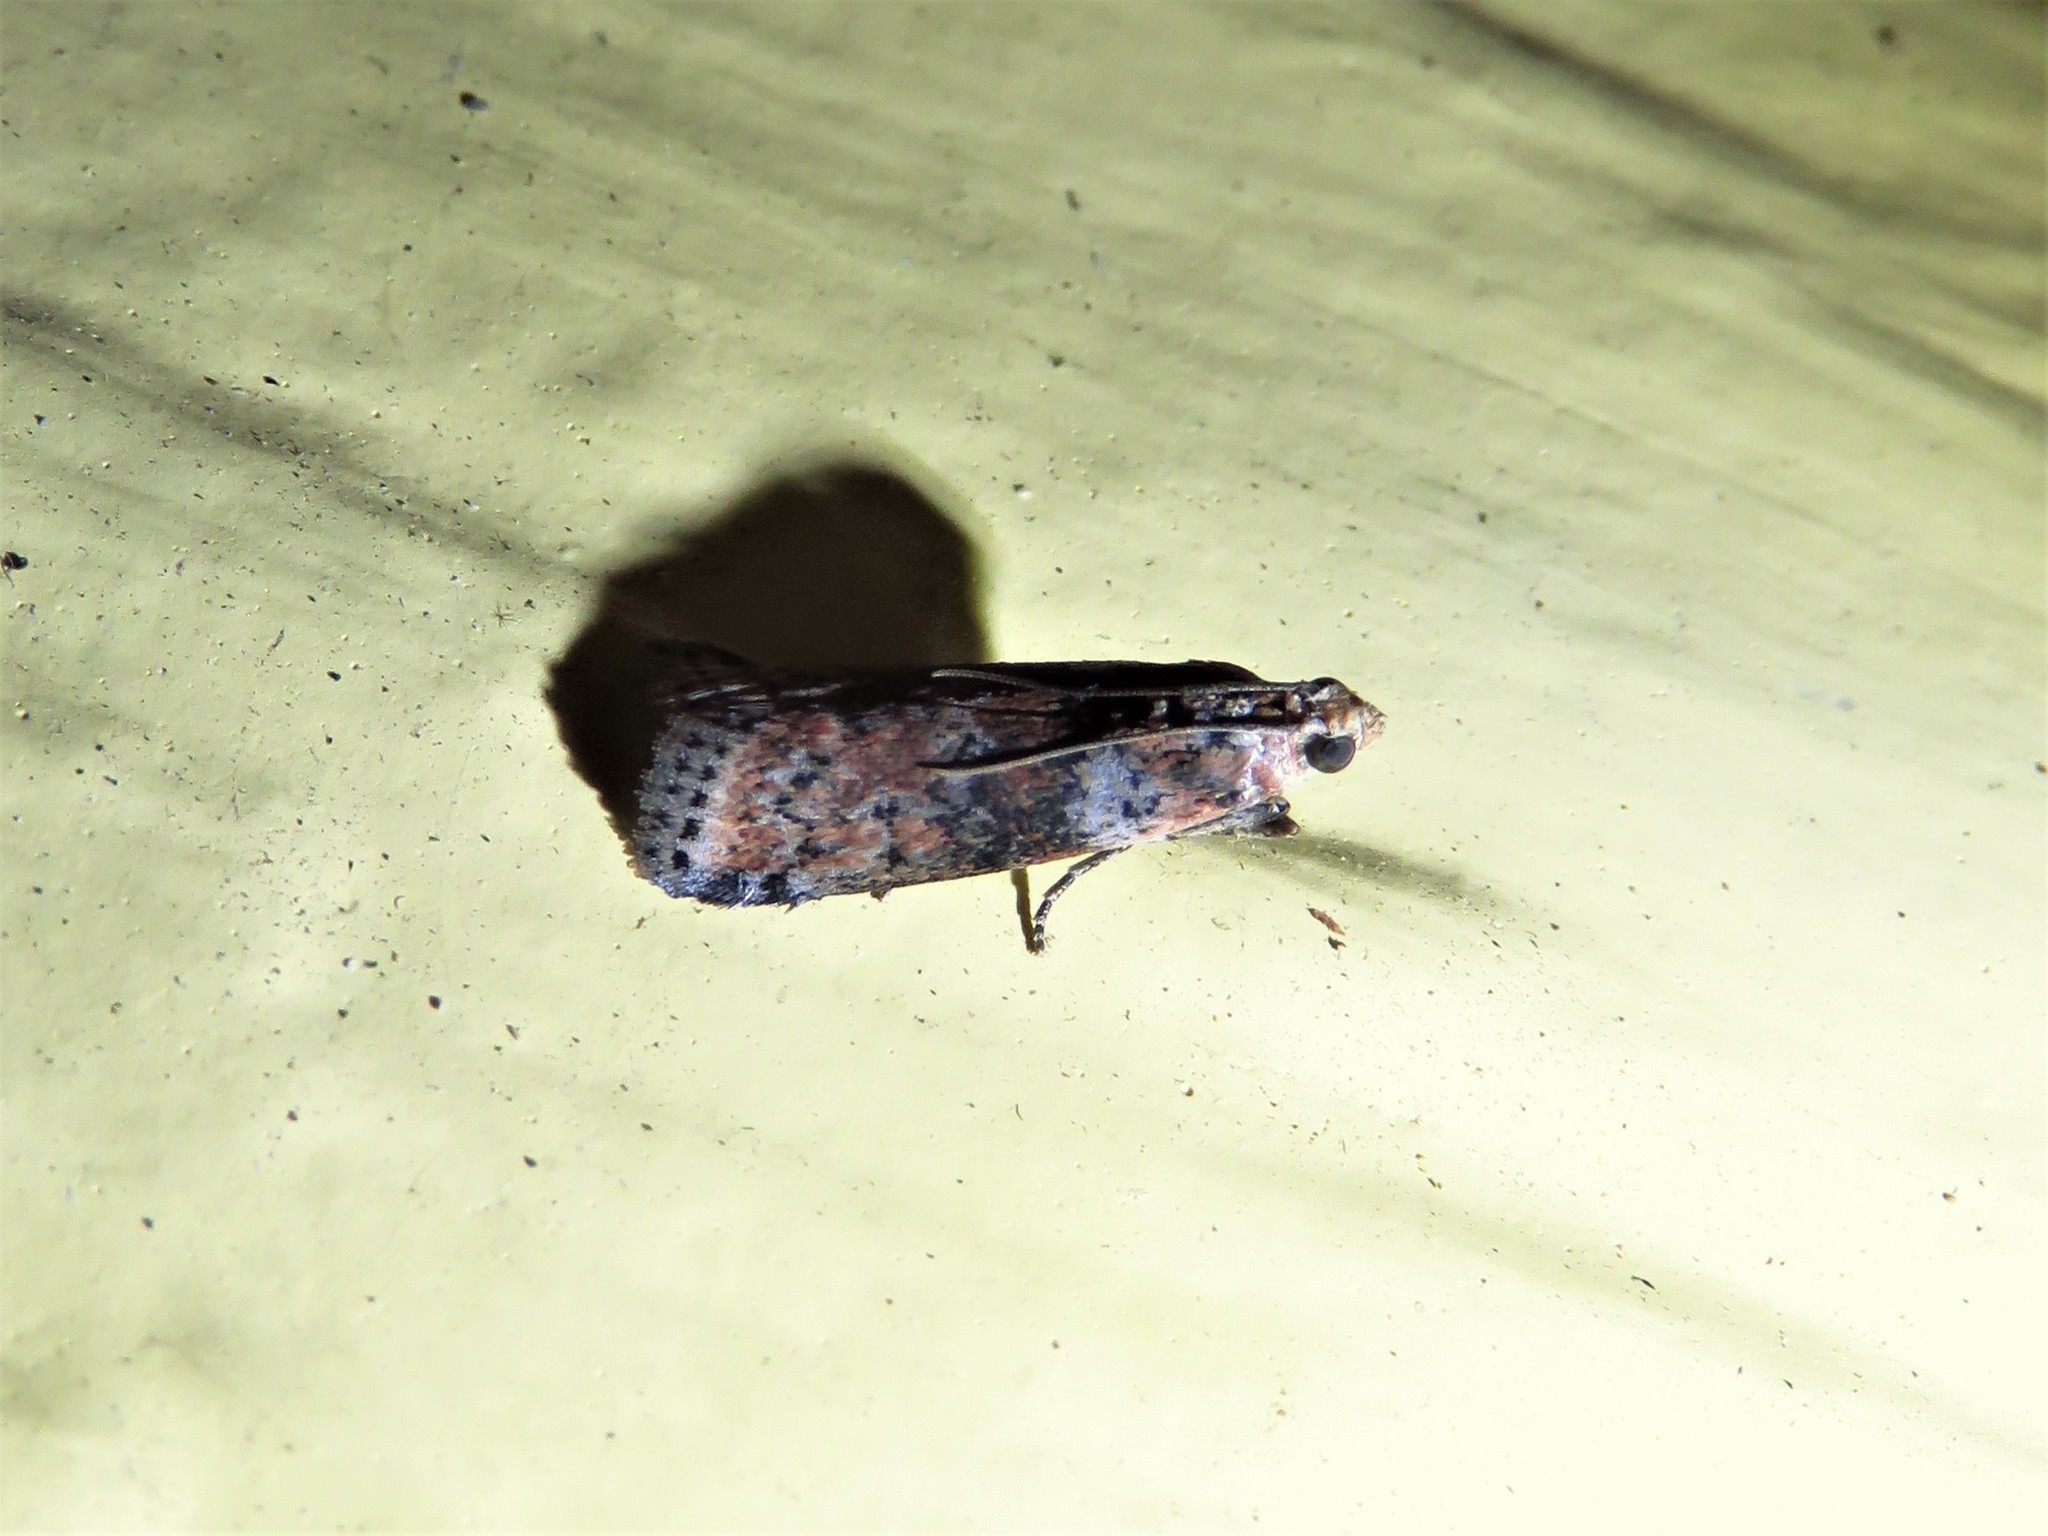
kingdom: Animalia
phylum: Arthropoda
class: Insecta
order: Lepidoptera
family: Pyralidae
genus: Sciota
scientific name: Sciota
